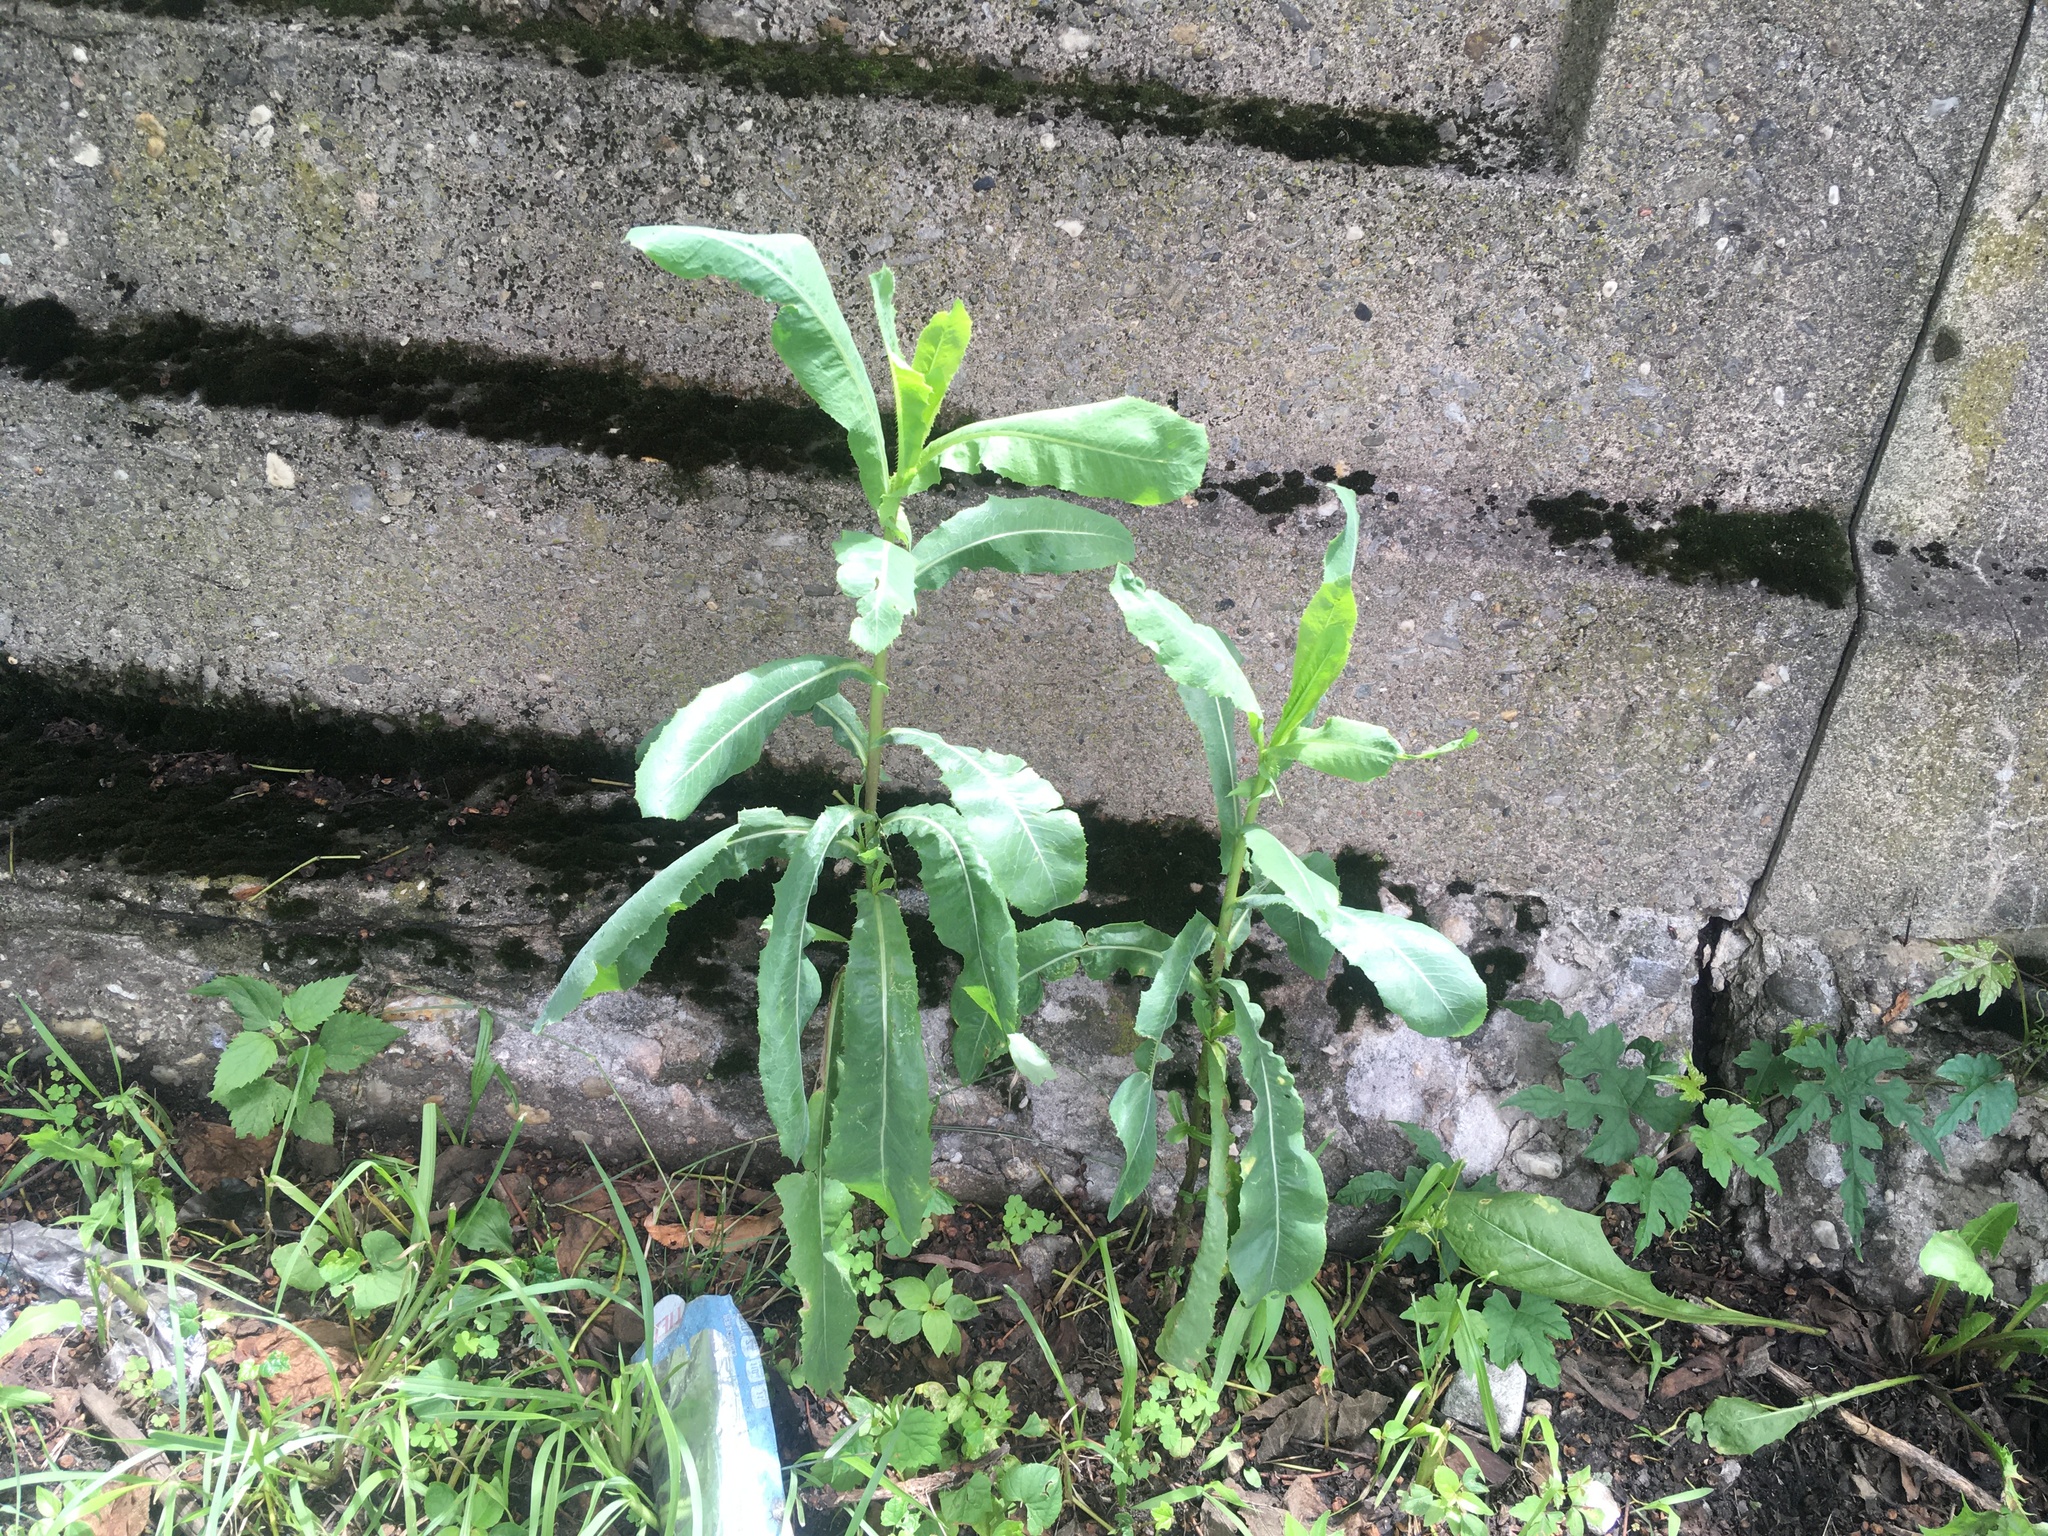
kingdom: Plantae
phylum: Tracheophyta
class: Magnoliopsida
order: Asterales
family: Asteraceae
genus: Lactuca
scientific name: Lactuca serriola
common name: Prickly lettuce
